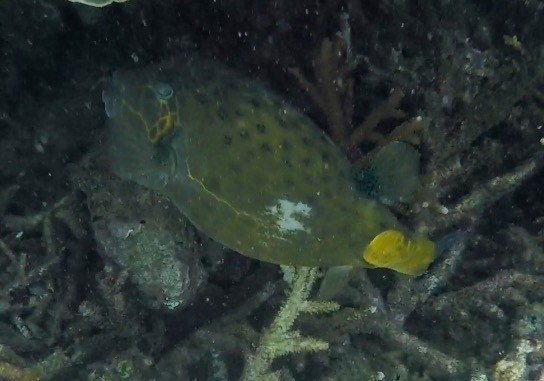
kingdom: Animalia
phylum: Chordata
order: Tetraodontiformes
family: Ostraciidae
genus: Ostracion
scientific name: Ostracion cubicus
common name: Cube trunkfish
